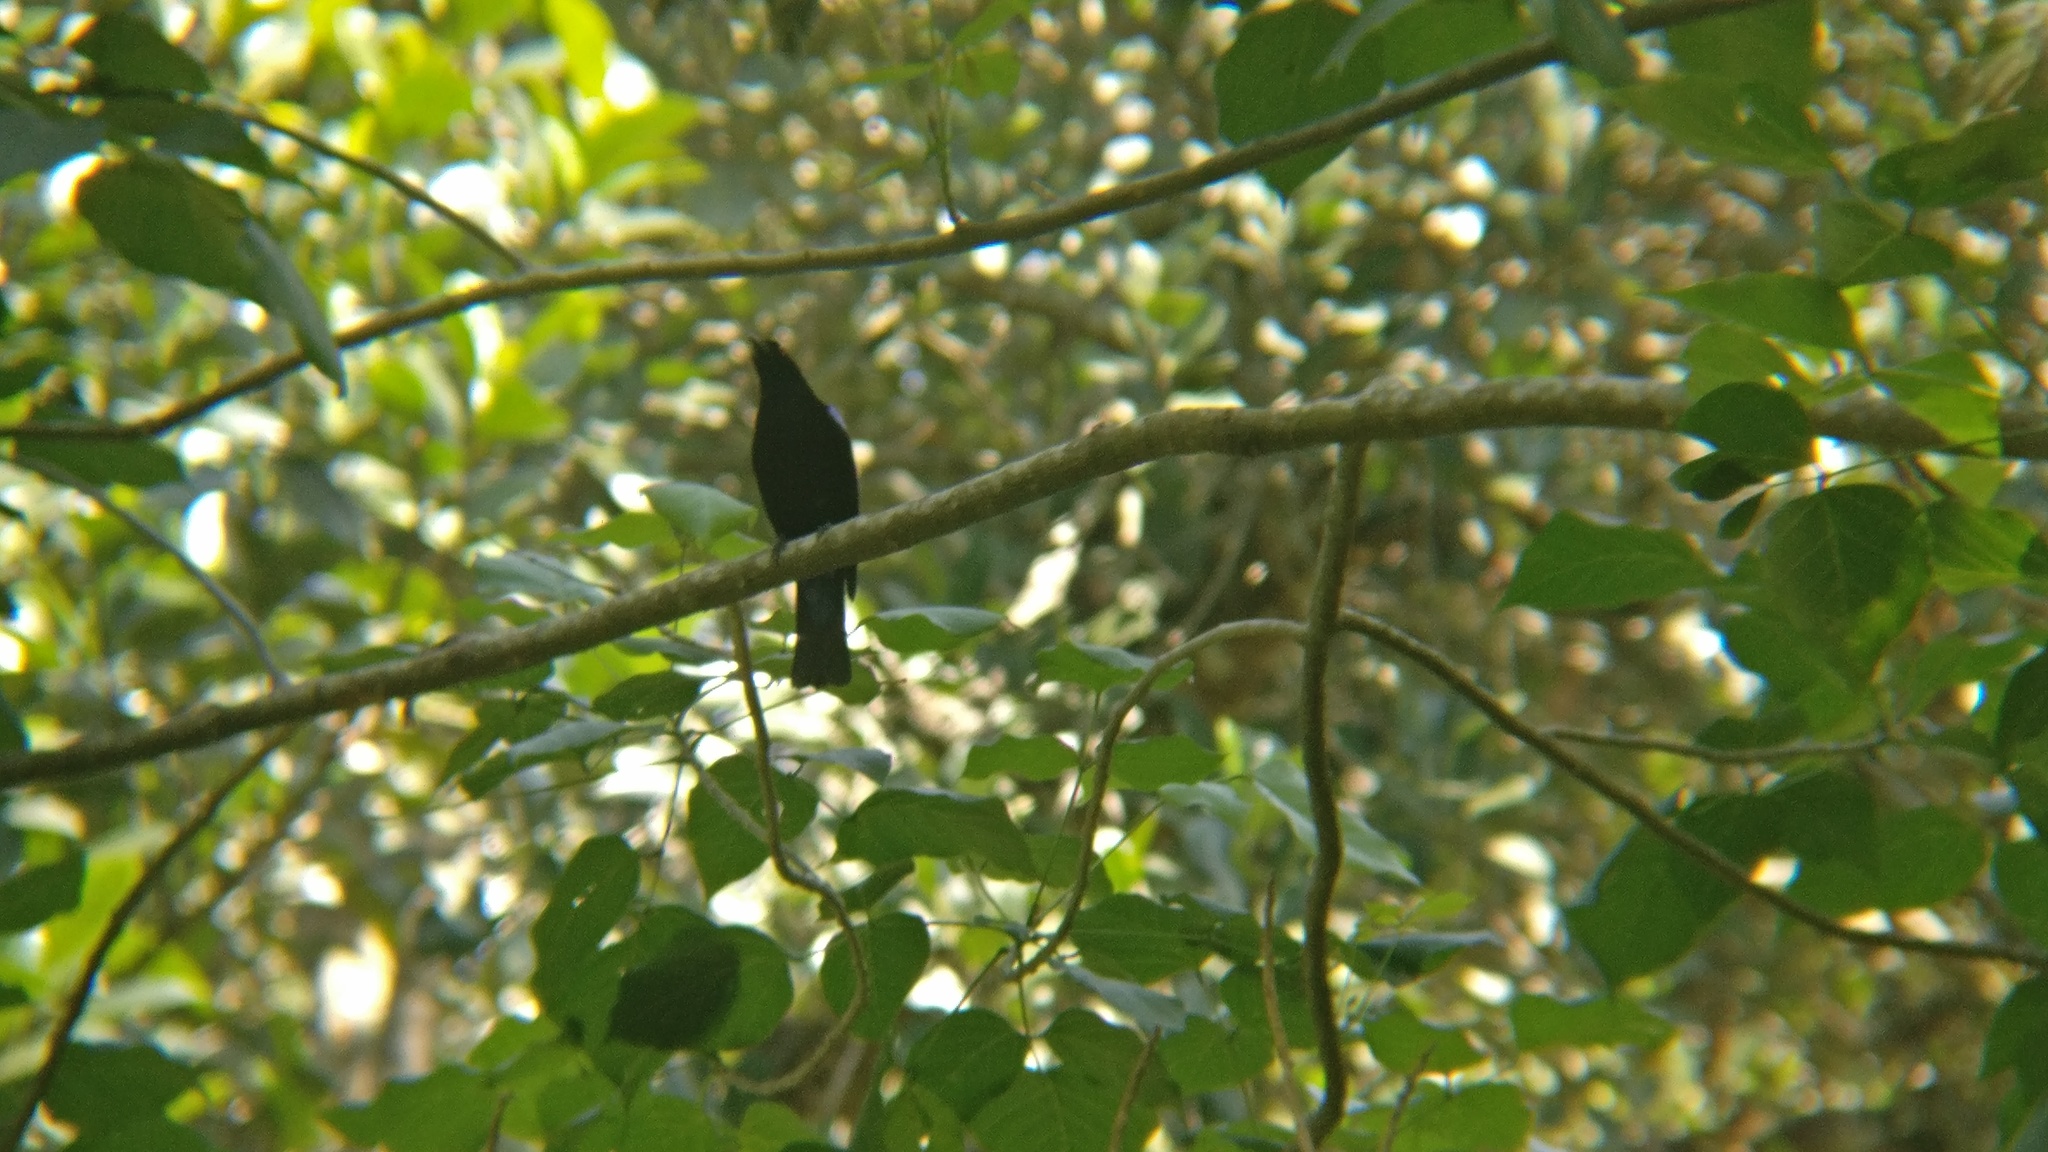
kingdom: Animalia
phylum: Chordata
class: Aves
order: Passeriformes
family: Irenidae
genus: Irena
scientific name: Irena puella
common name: Asian fairy-bluebird
